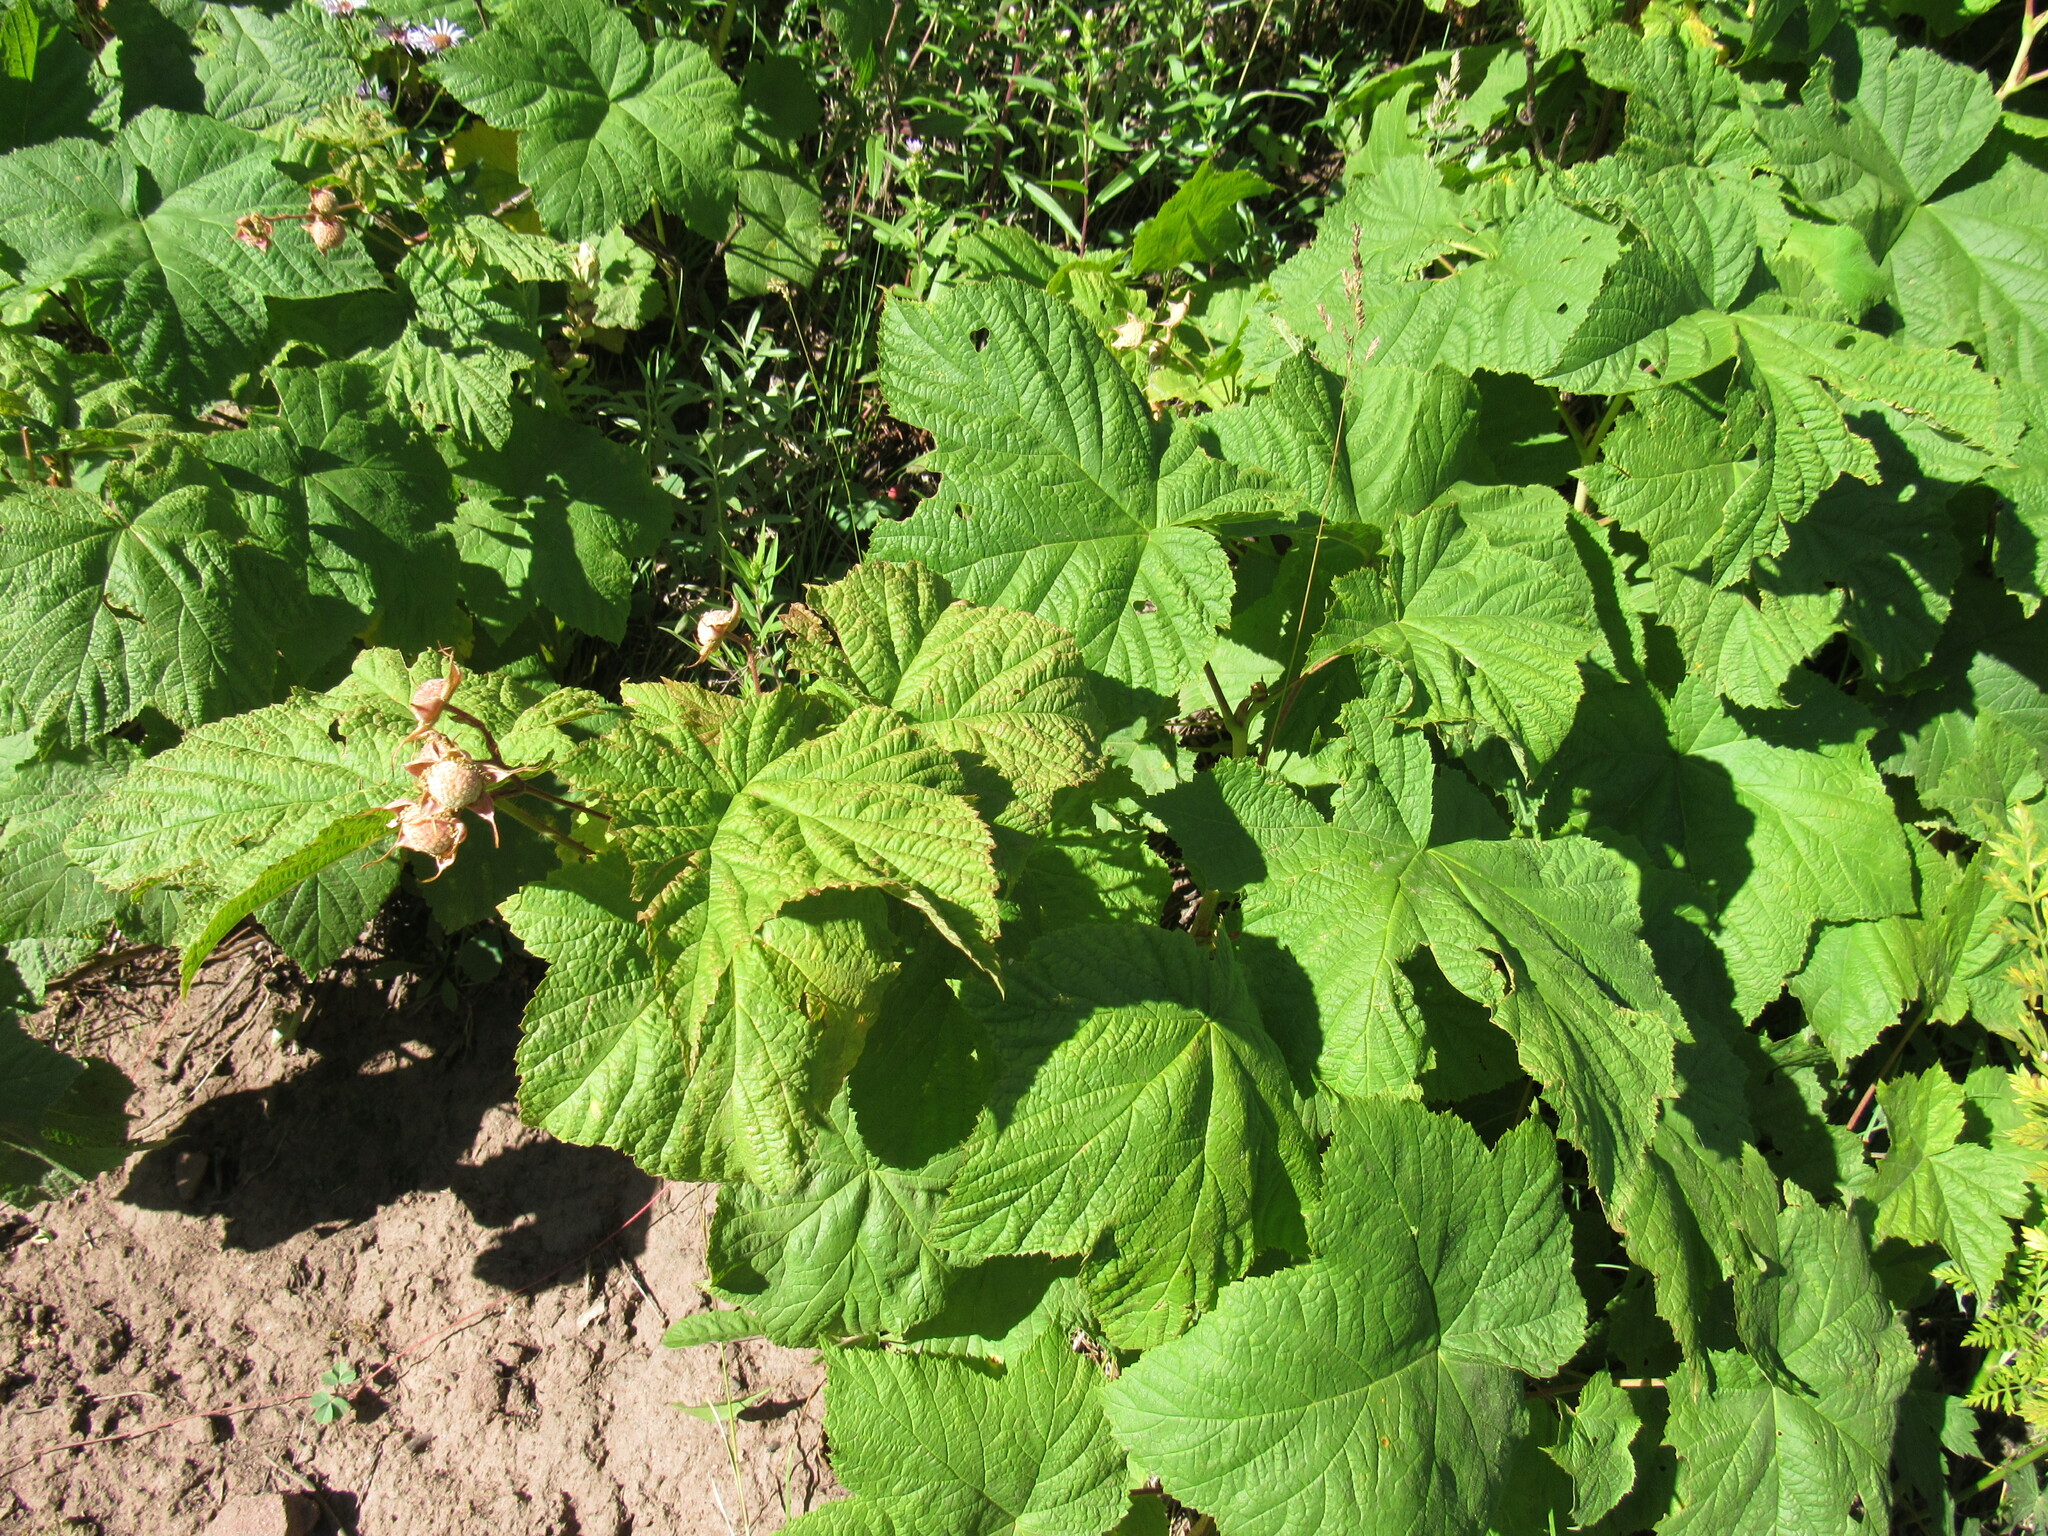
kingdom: Plantae
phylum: Tracheophyta
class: Magnoliopsida
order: Rosales
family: Rosaceae
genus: Rubus
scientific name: Rubus parviflorus
